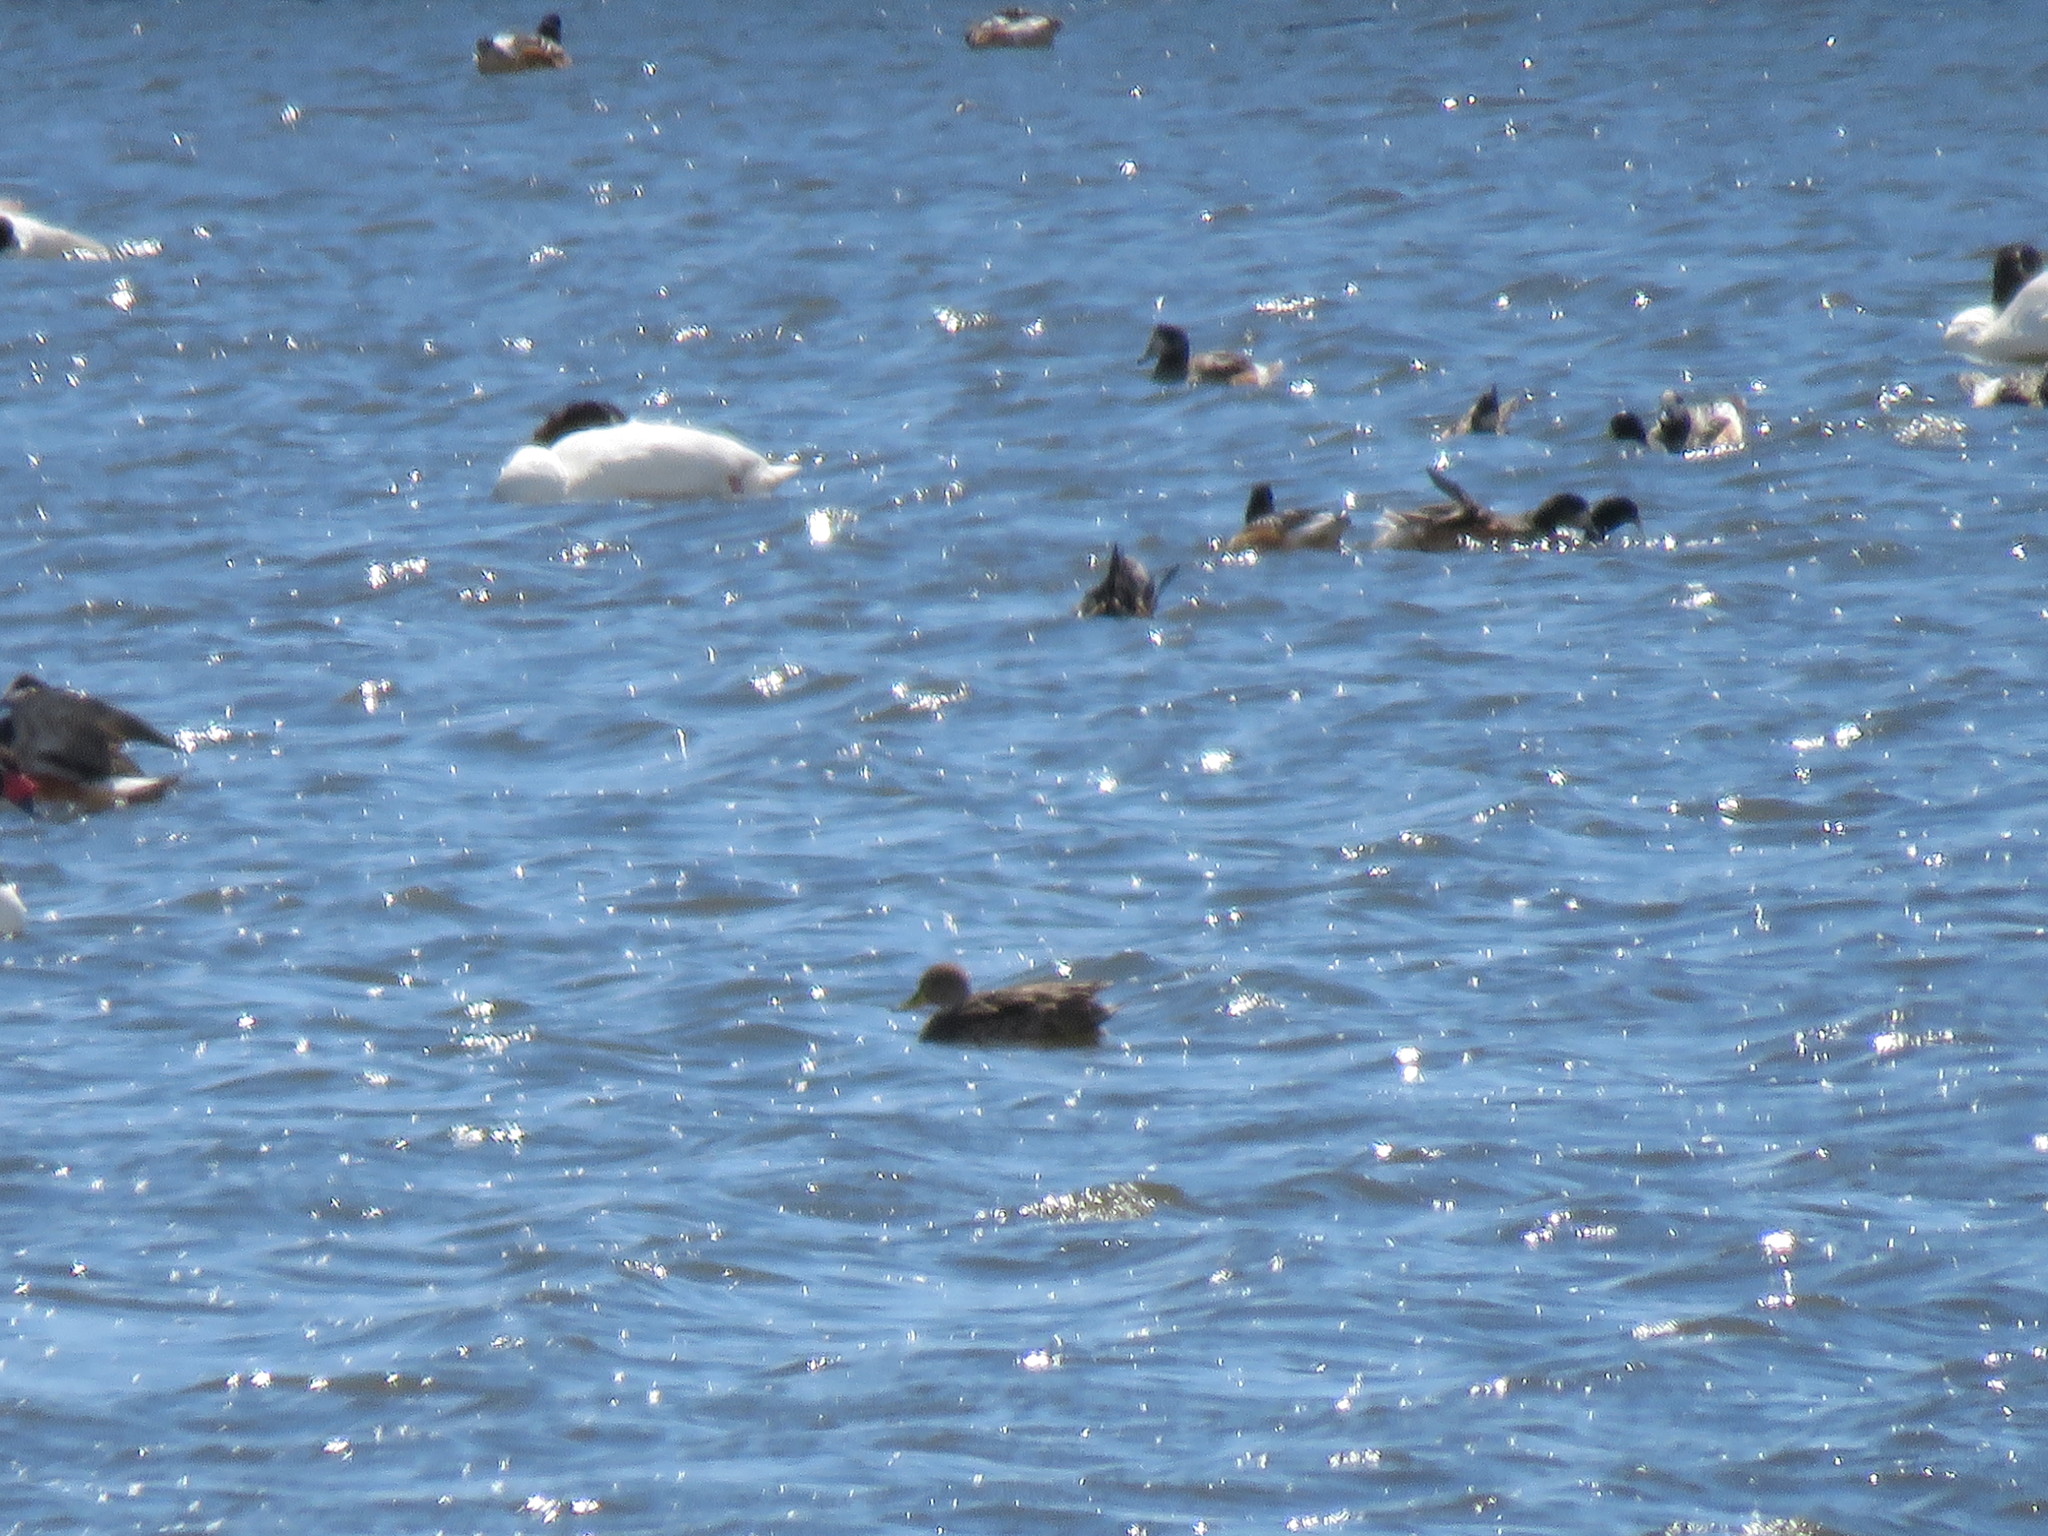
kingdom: Animalia
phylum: Chordata
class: Aves
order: Anseriformes
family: Anatidae
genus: Cygnus
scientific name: Cygnus melancoryphus
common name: Black-necked swan
